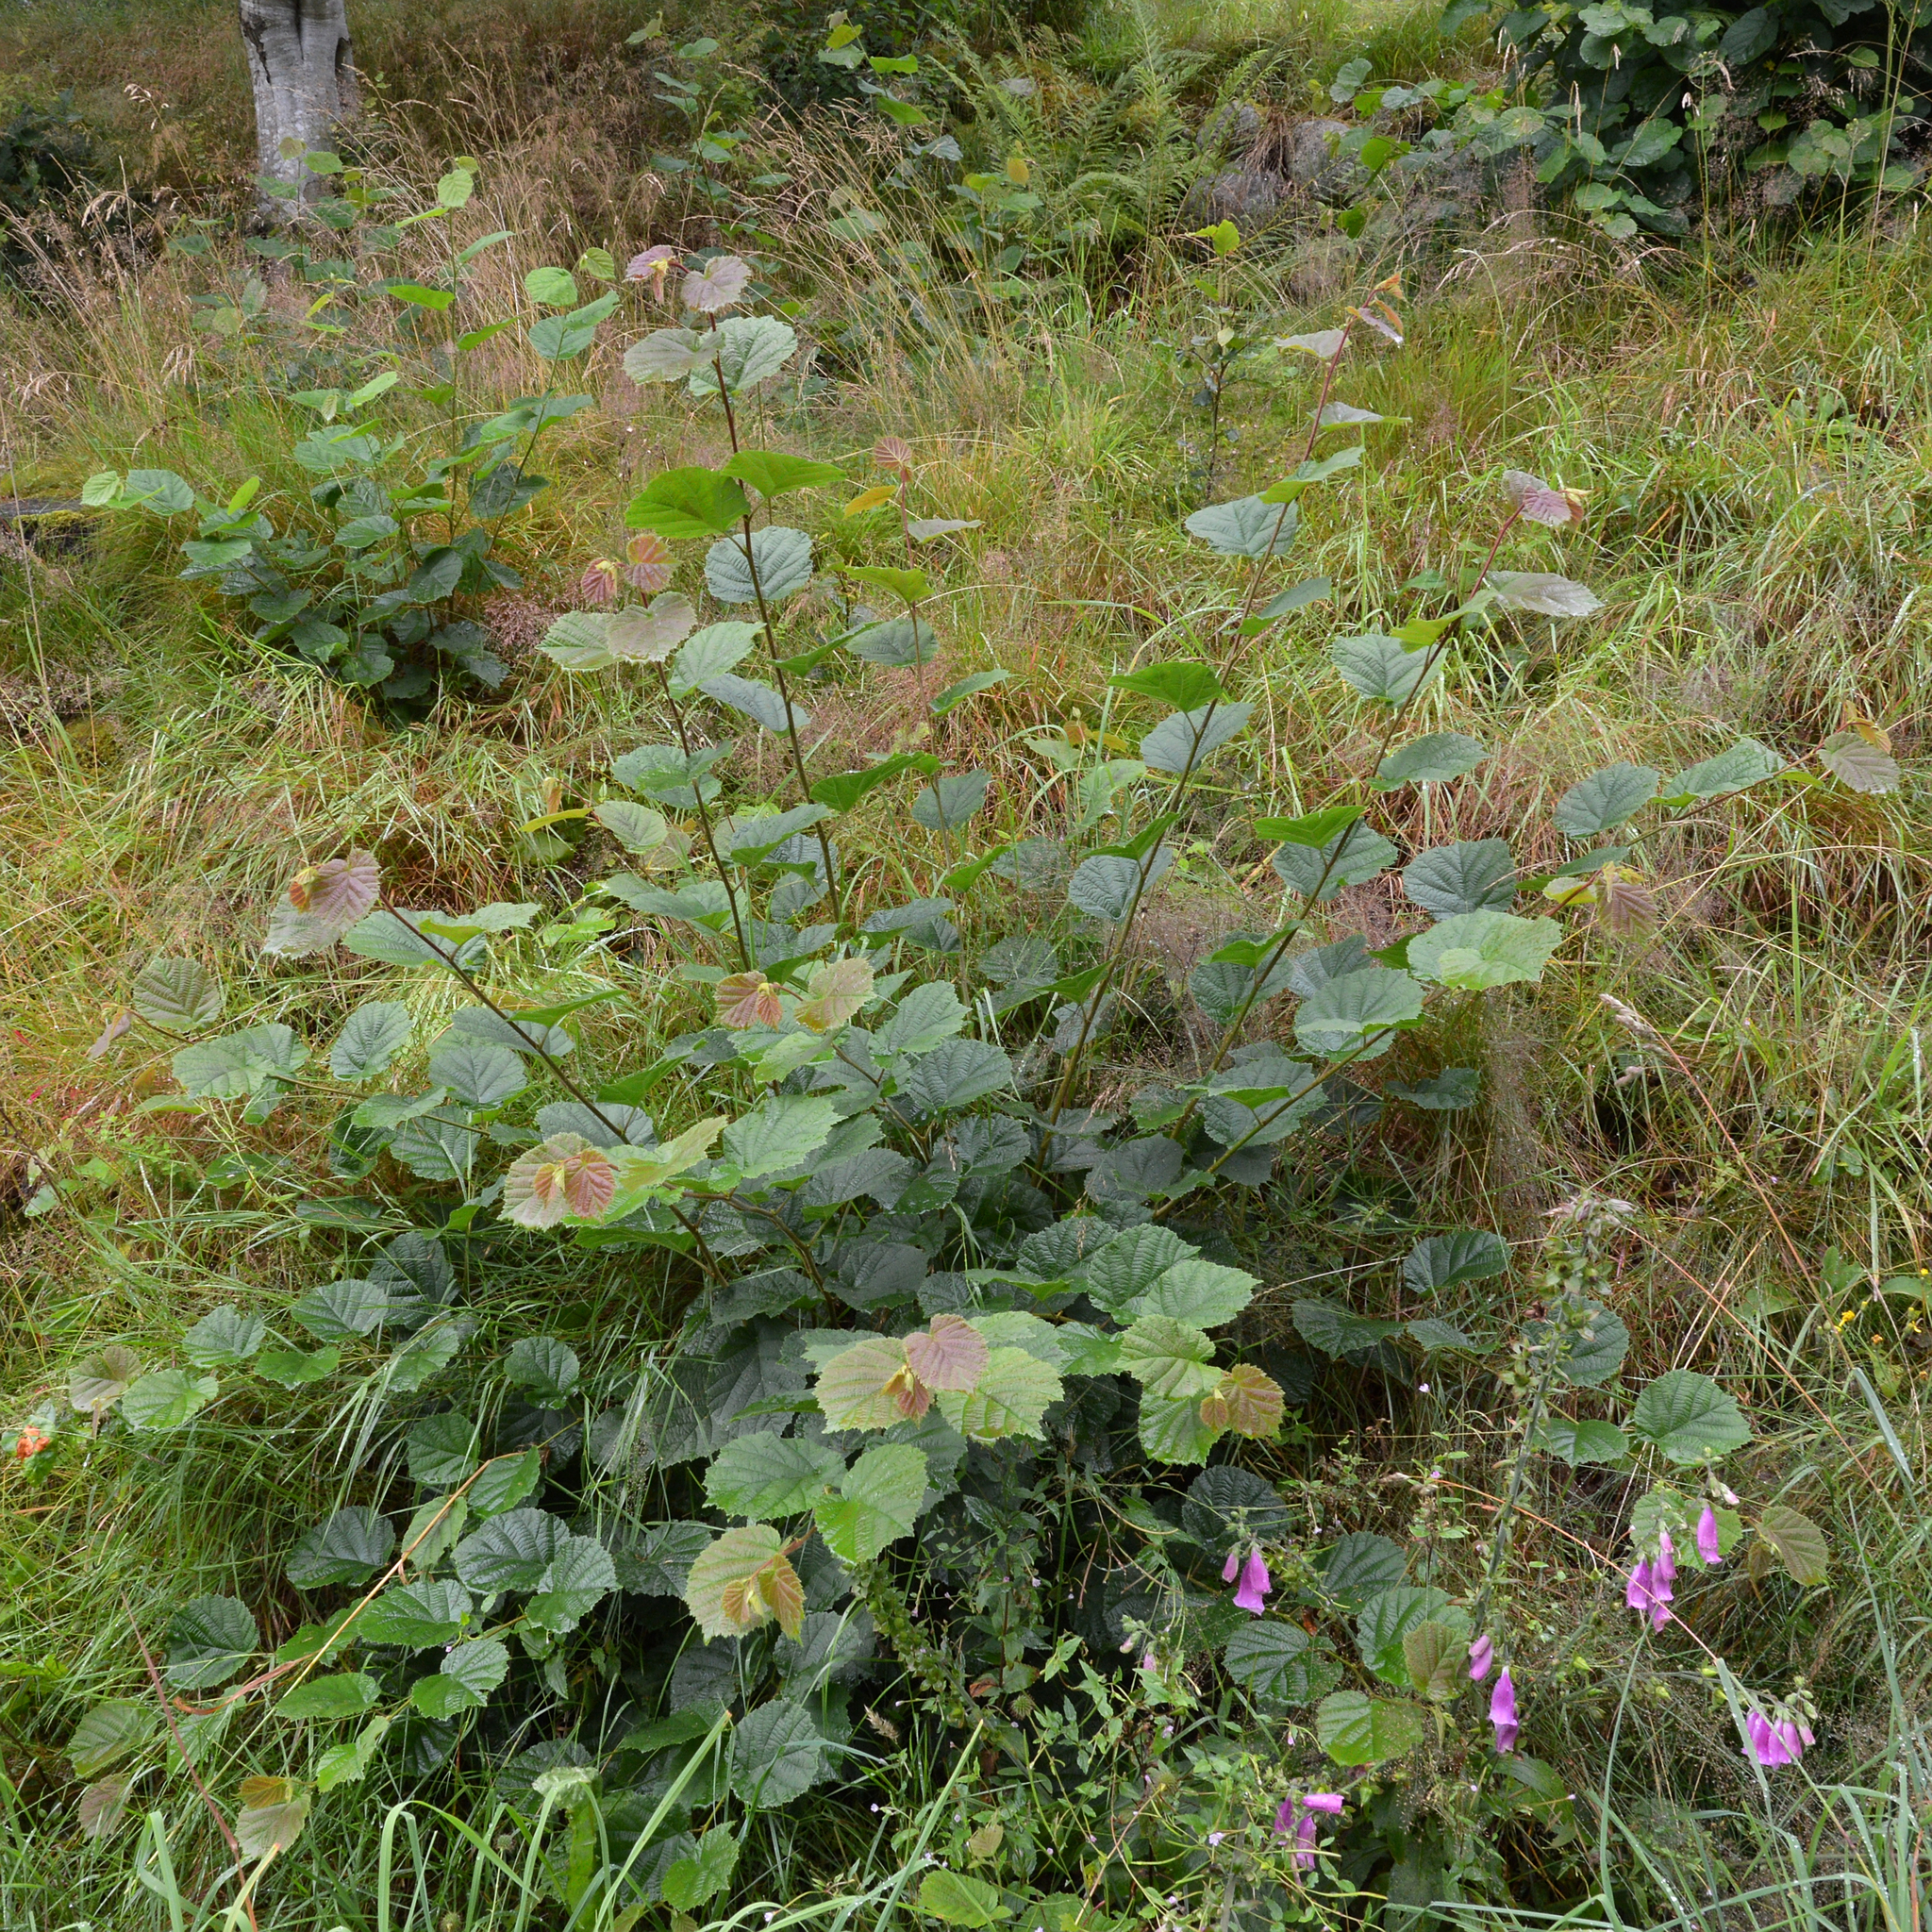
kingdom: Plantae
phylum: Tracheophyta
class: Magnoliopsida
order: Fagales
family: Betulaceae
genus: Corylus
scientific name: Corylus avellana
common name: European hazel
